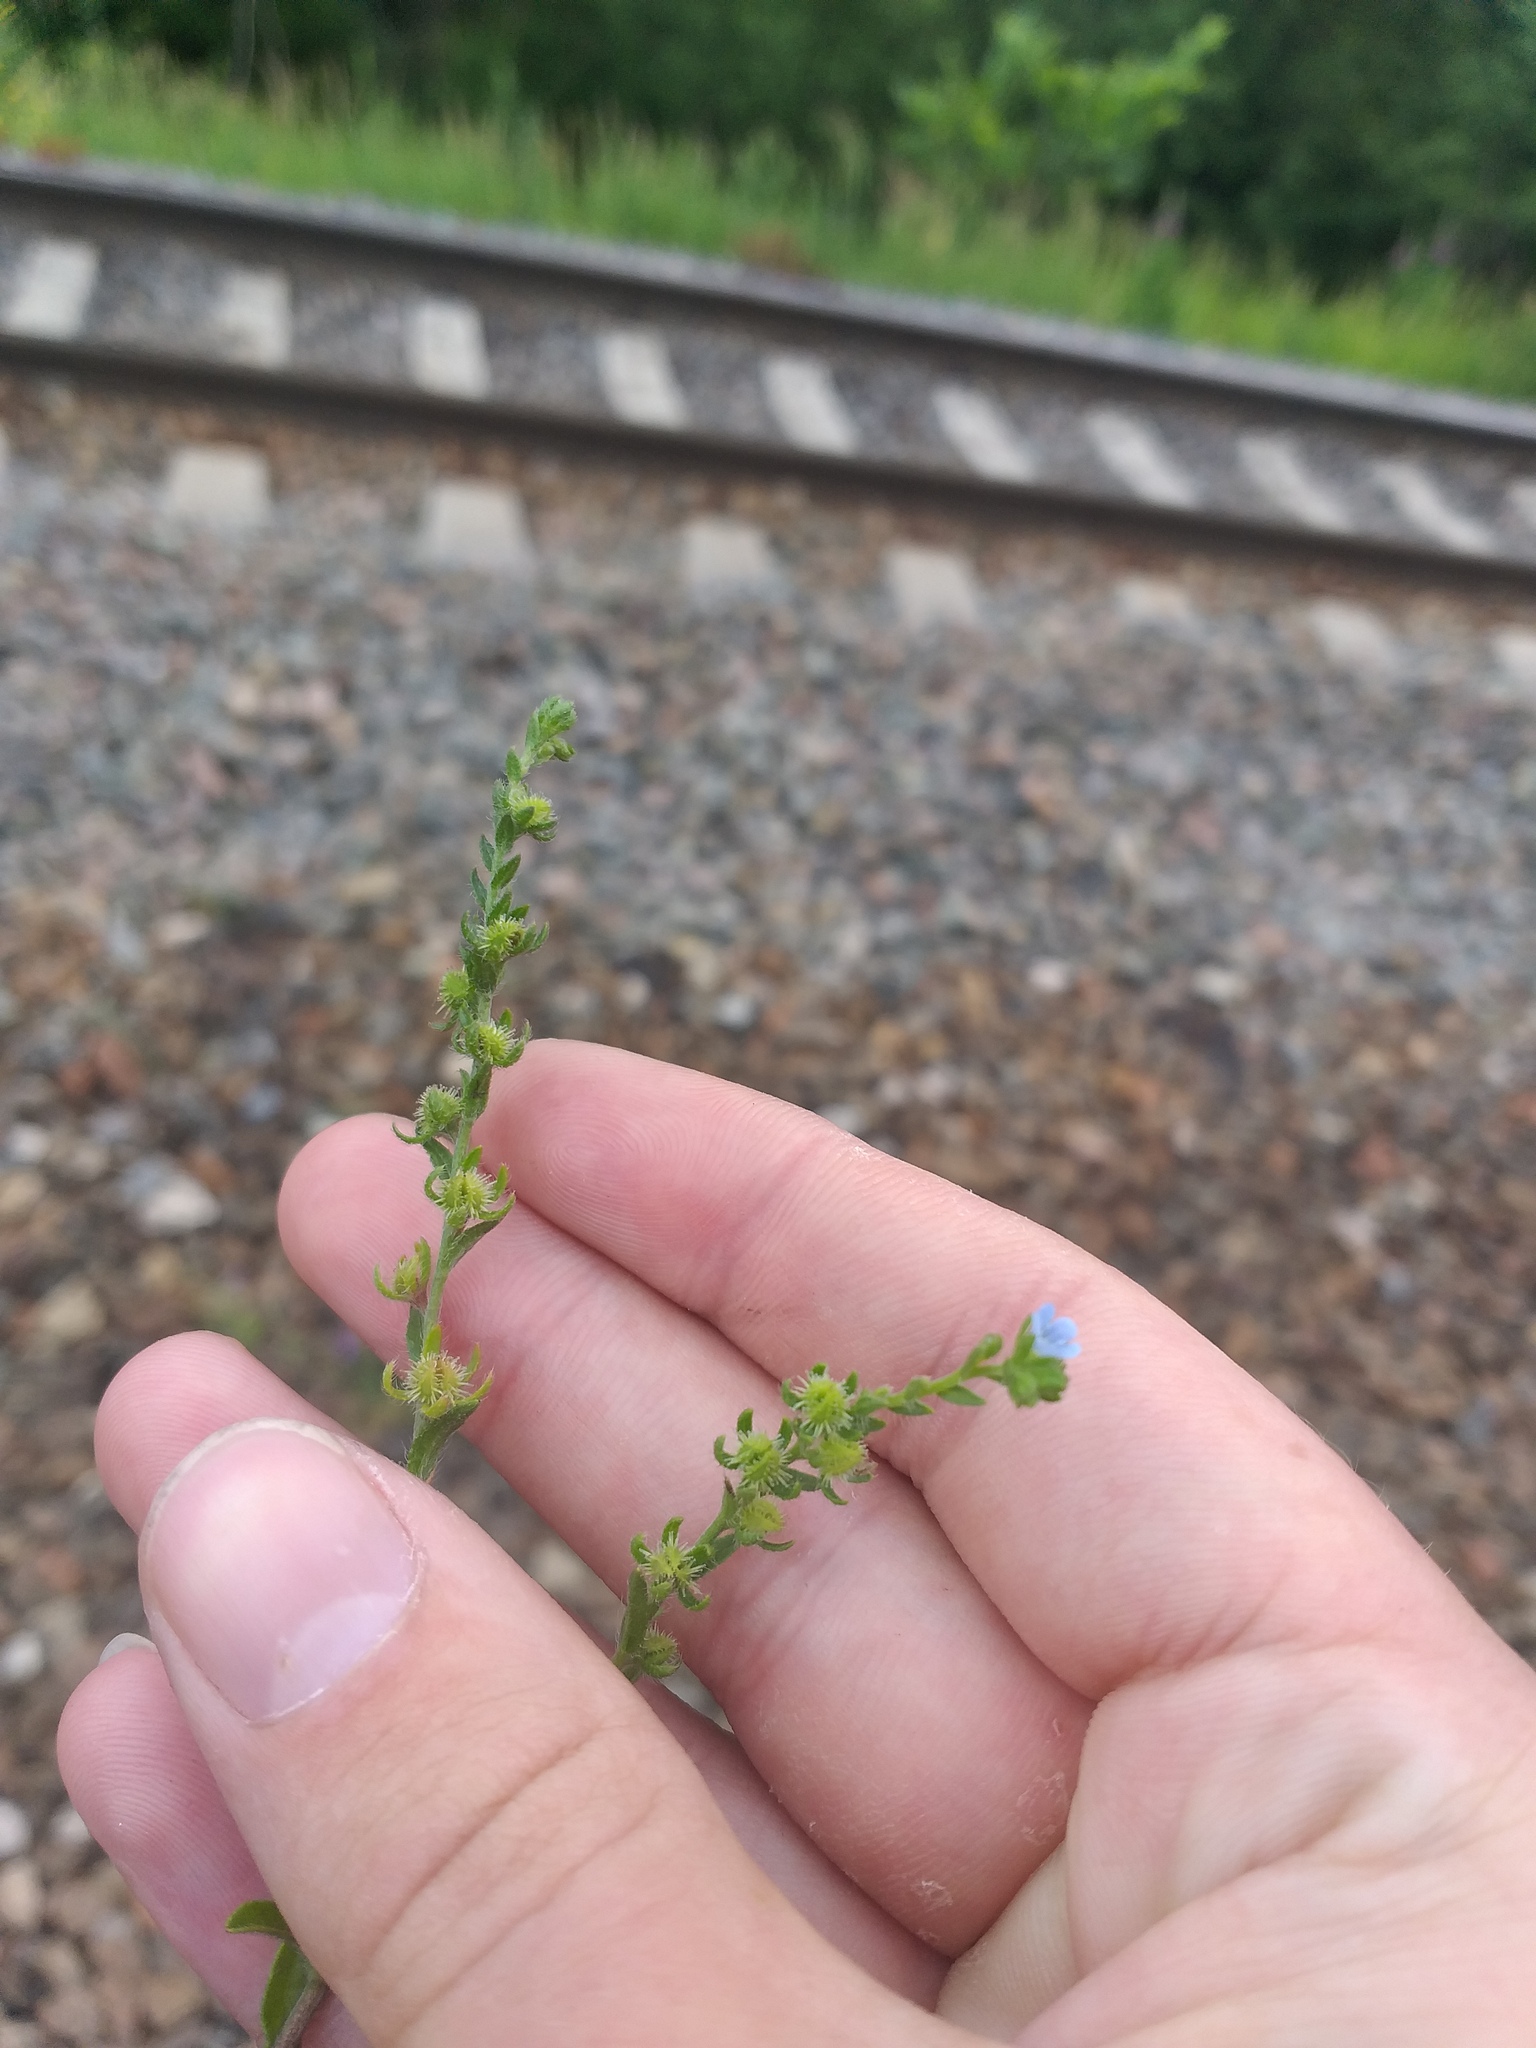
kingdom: Plantae
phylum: Tracheophyta
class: Magnoliopsida
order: Boraginales
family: Boraginaceae
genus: Lappula
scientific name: Lappula squarrosa
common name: European stickseed
